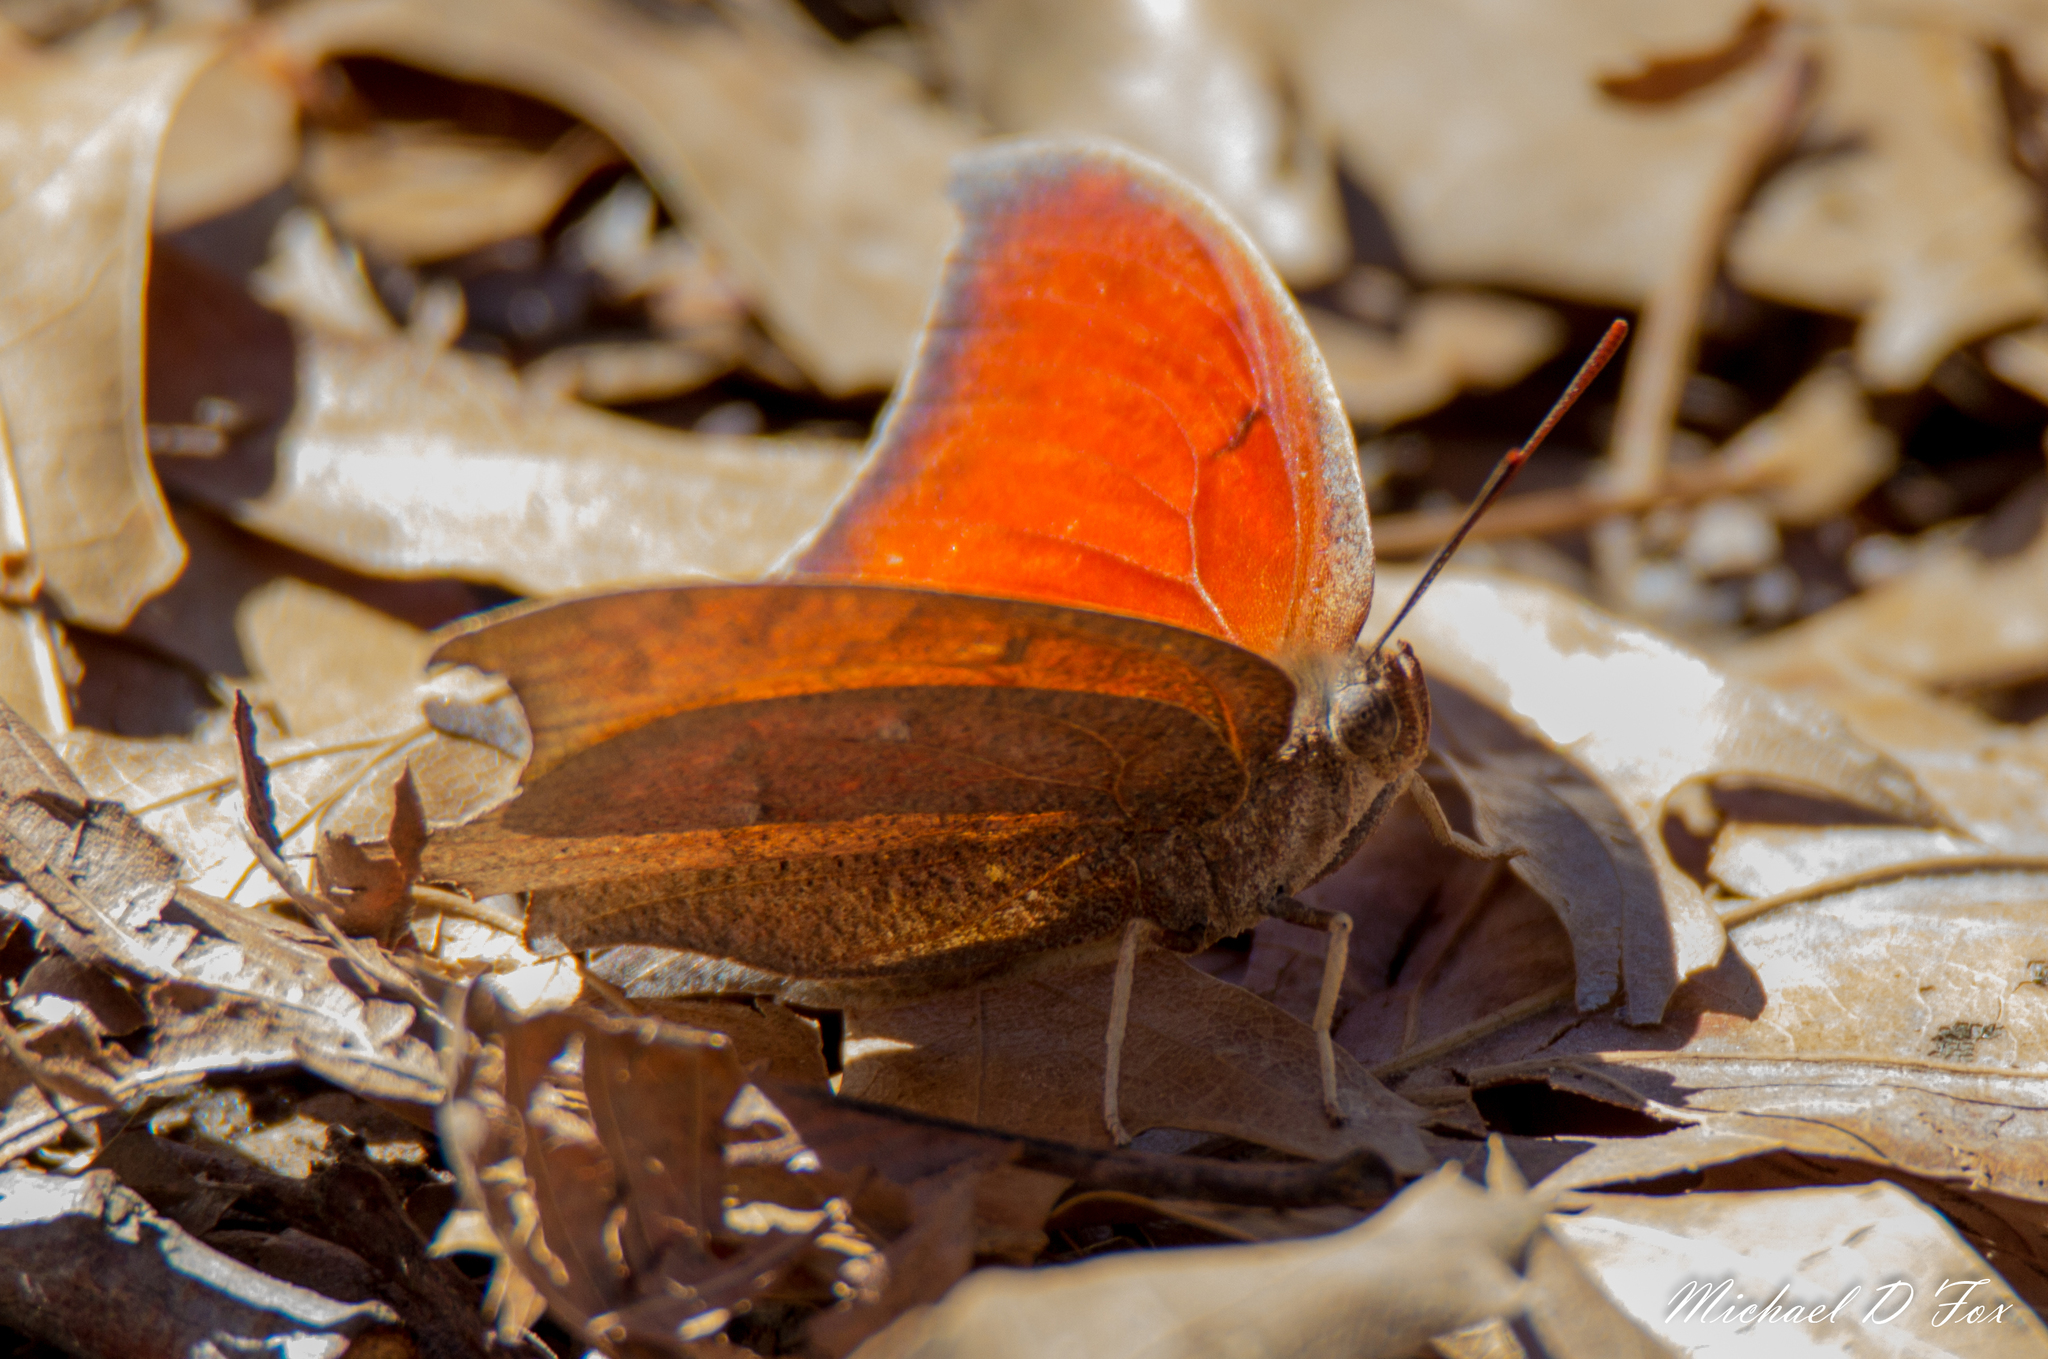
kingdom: Animalia
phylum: Arthropoda
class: Insecta
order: Lepidoptera
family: Nymphalidae
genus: Anaea
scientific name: Anaea andria
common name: Goatweed leafwing
